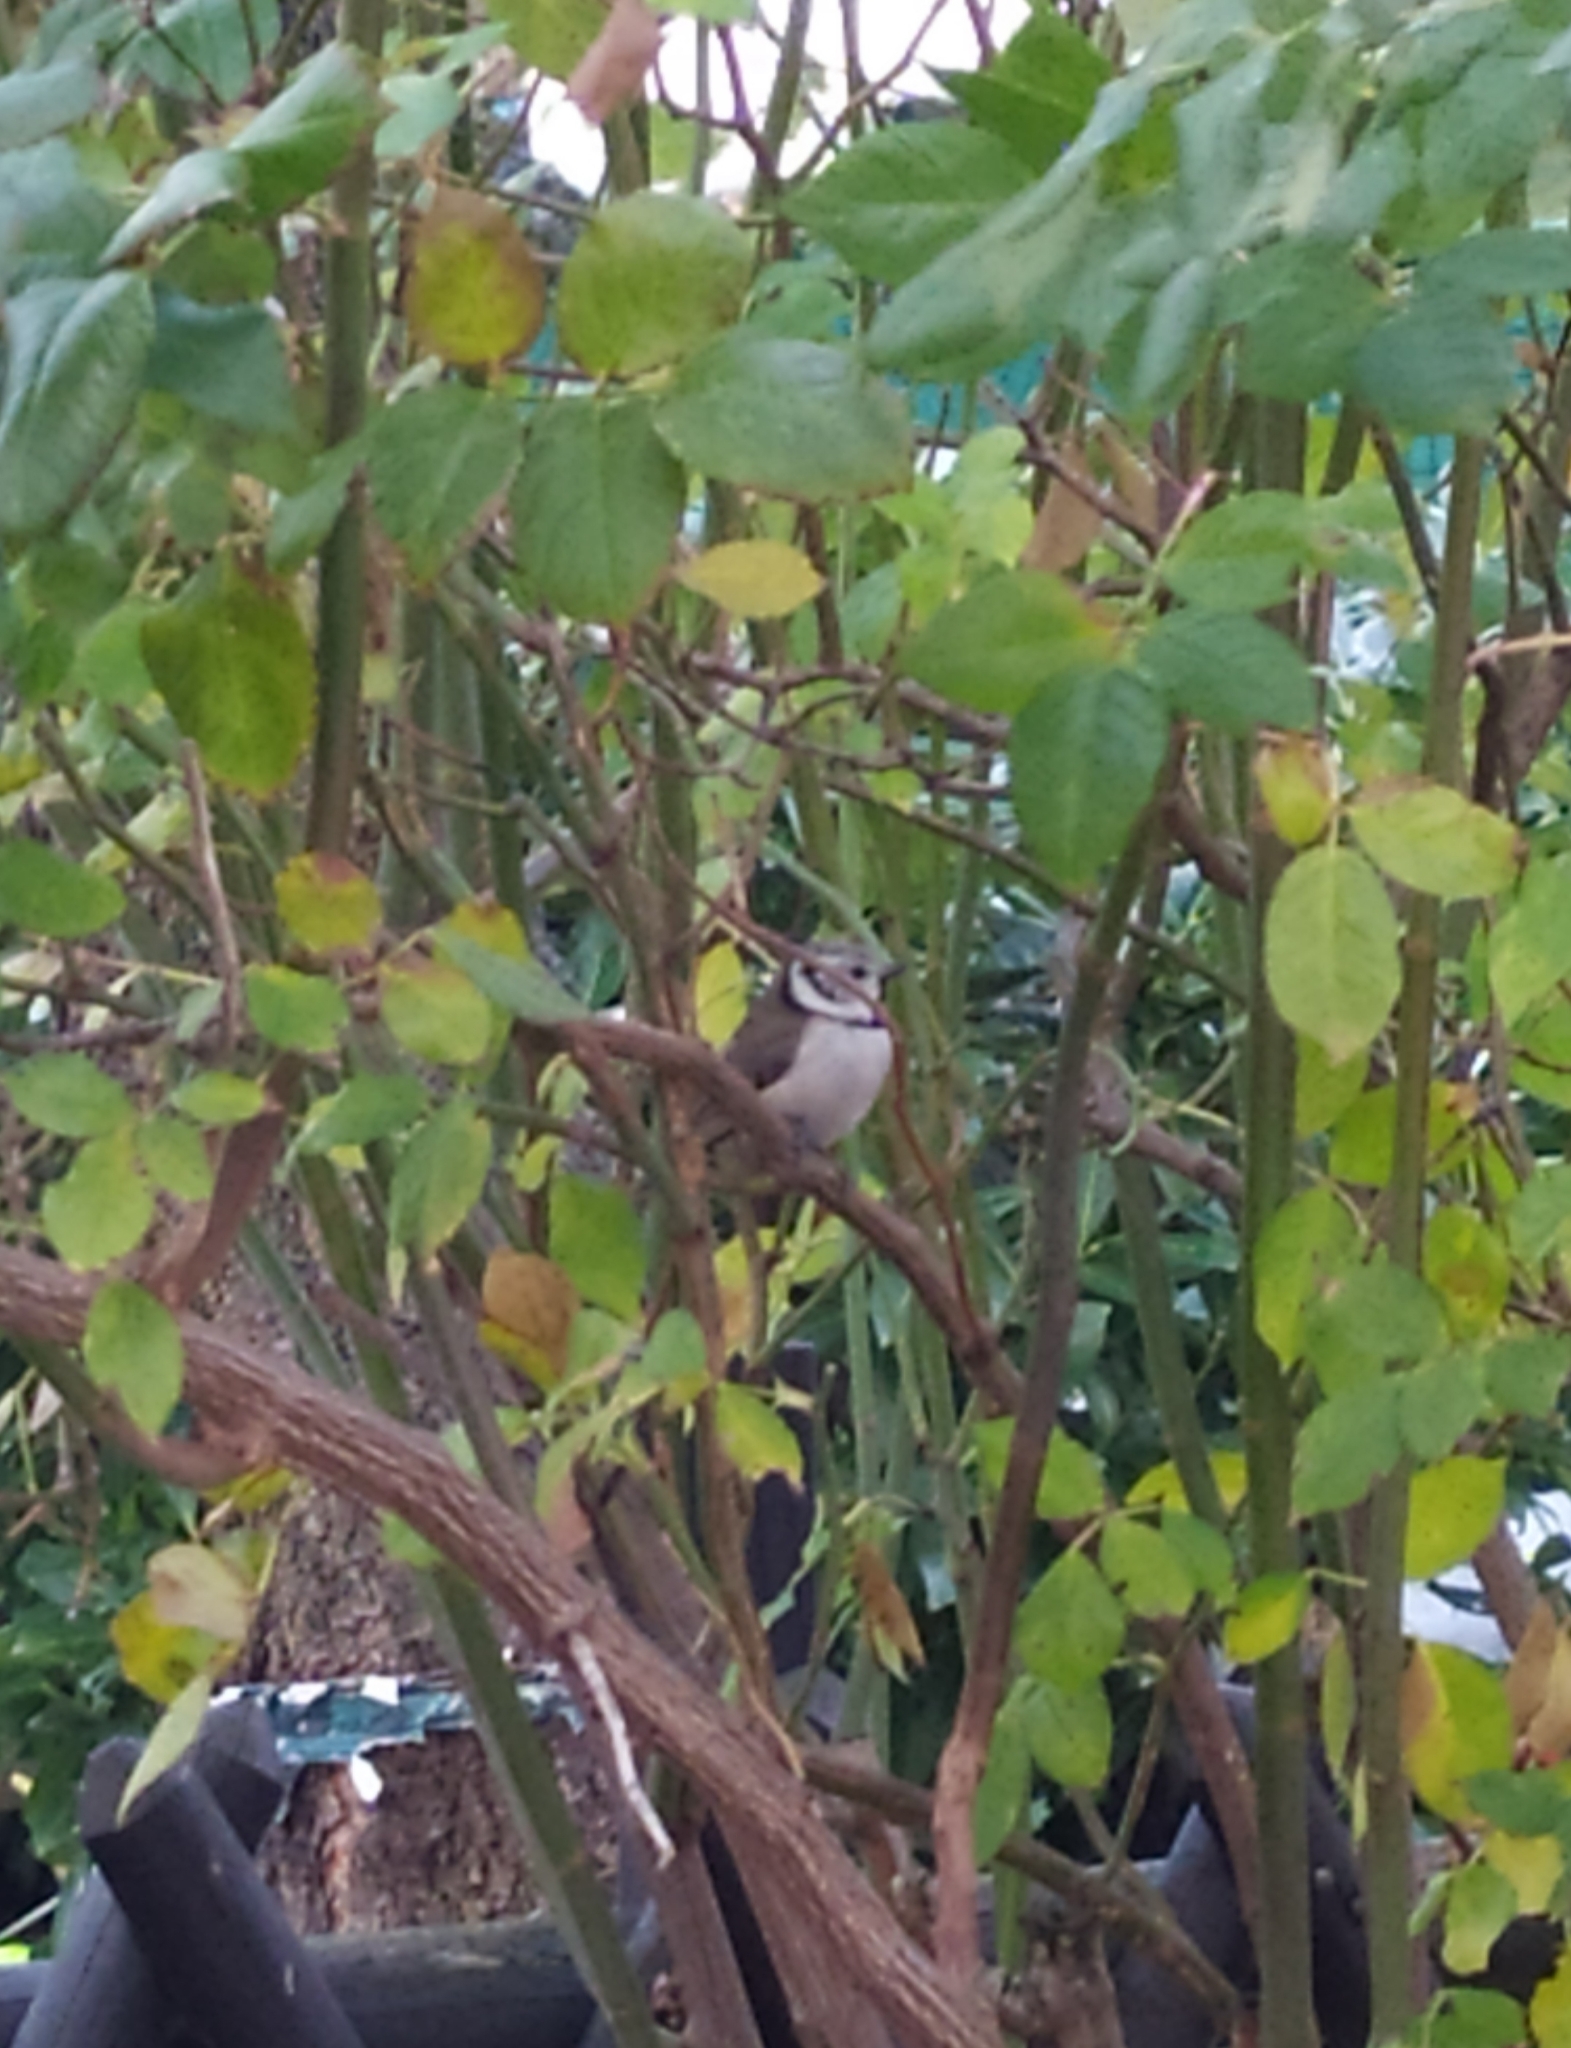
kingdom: Animalia
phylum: Chordata
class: Aves
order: Passeriformes
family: Paridae
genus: Lophophanes
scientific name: Lophophanes cristatus
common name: European crested tit
